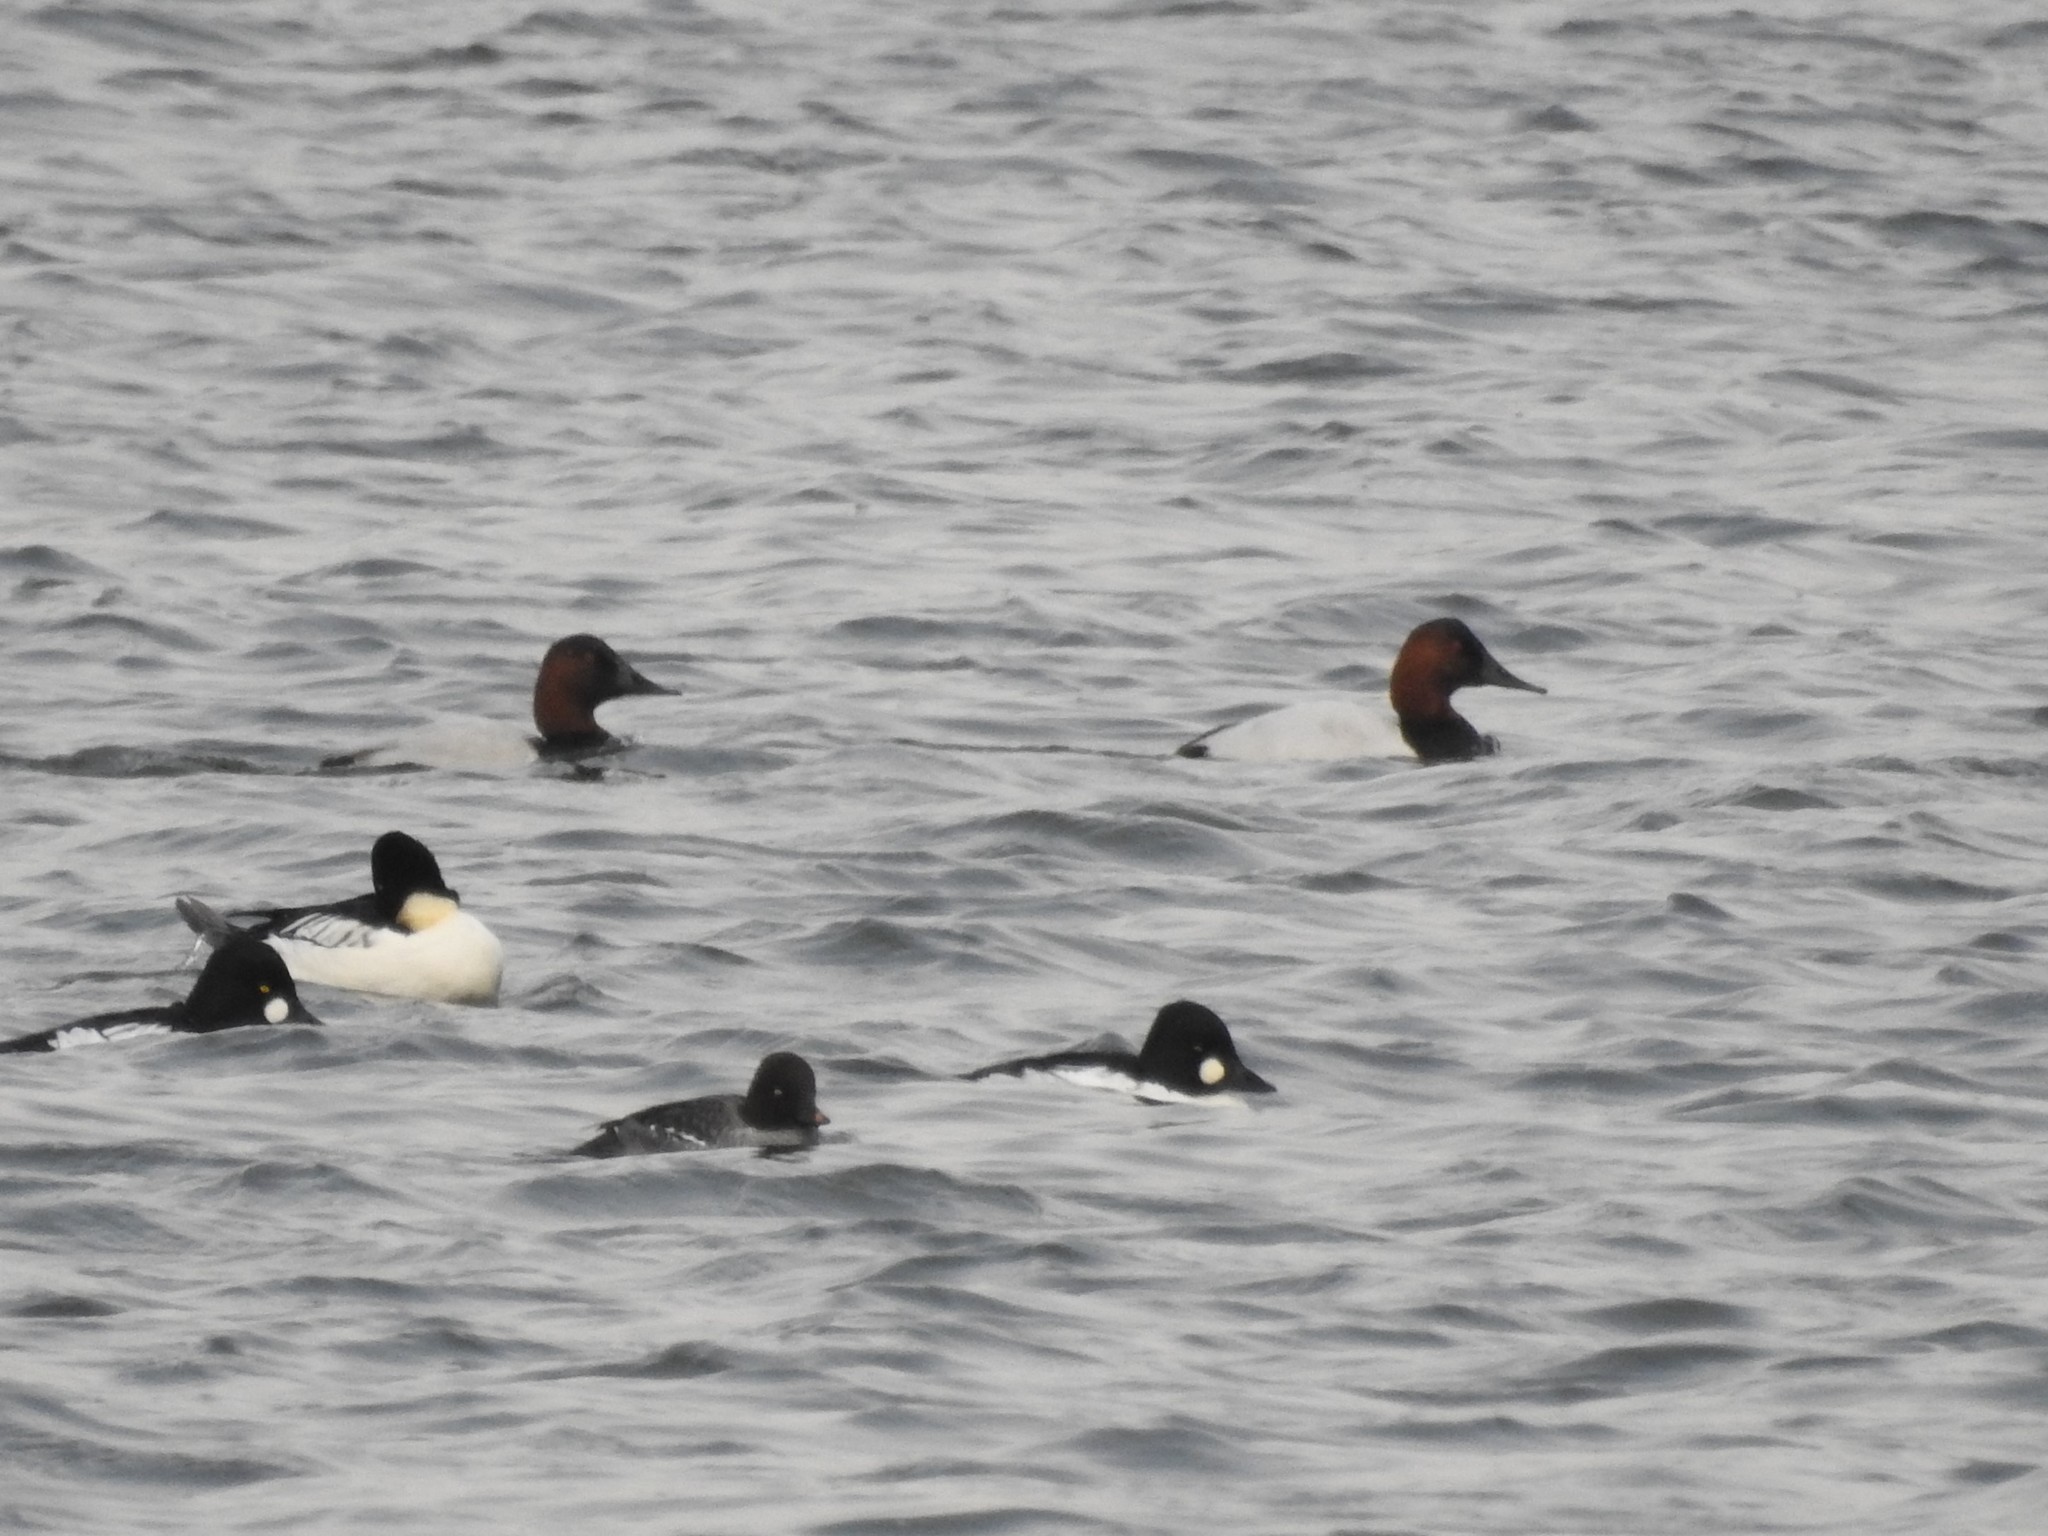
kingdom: Animalia
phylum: Chordata
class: Aves
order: Anseriformes
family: Anatidae
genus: Aythya
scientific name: Aythya valisineria
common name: Canvasback
